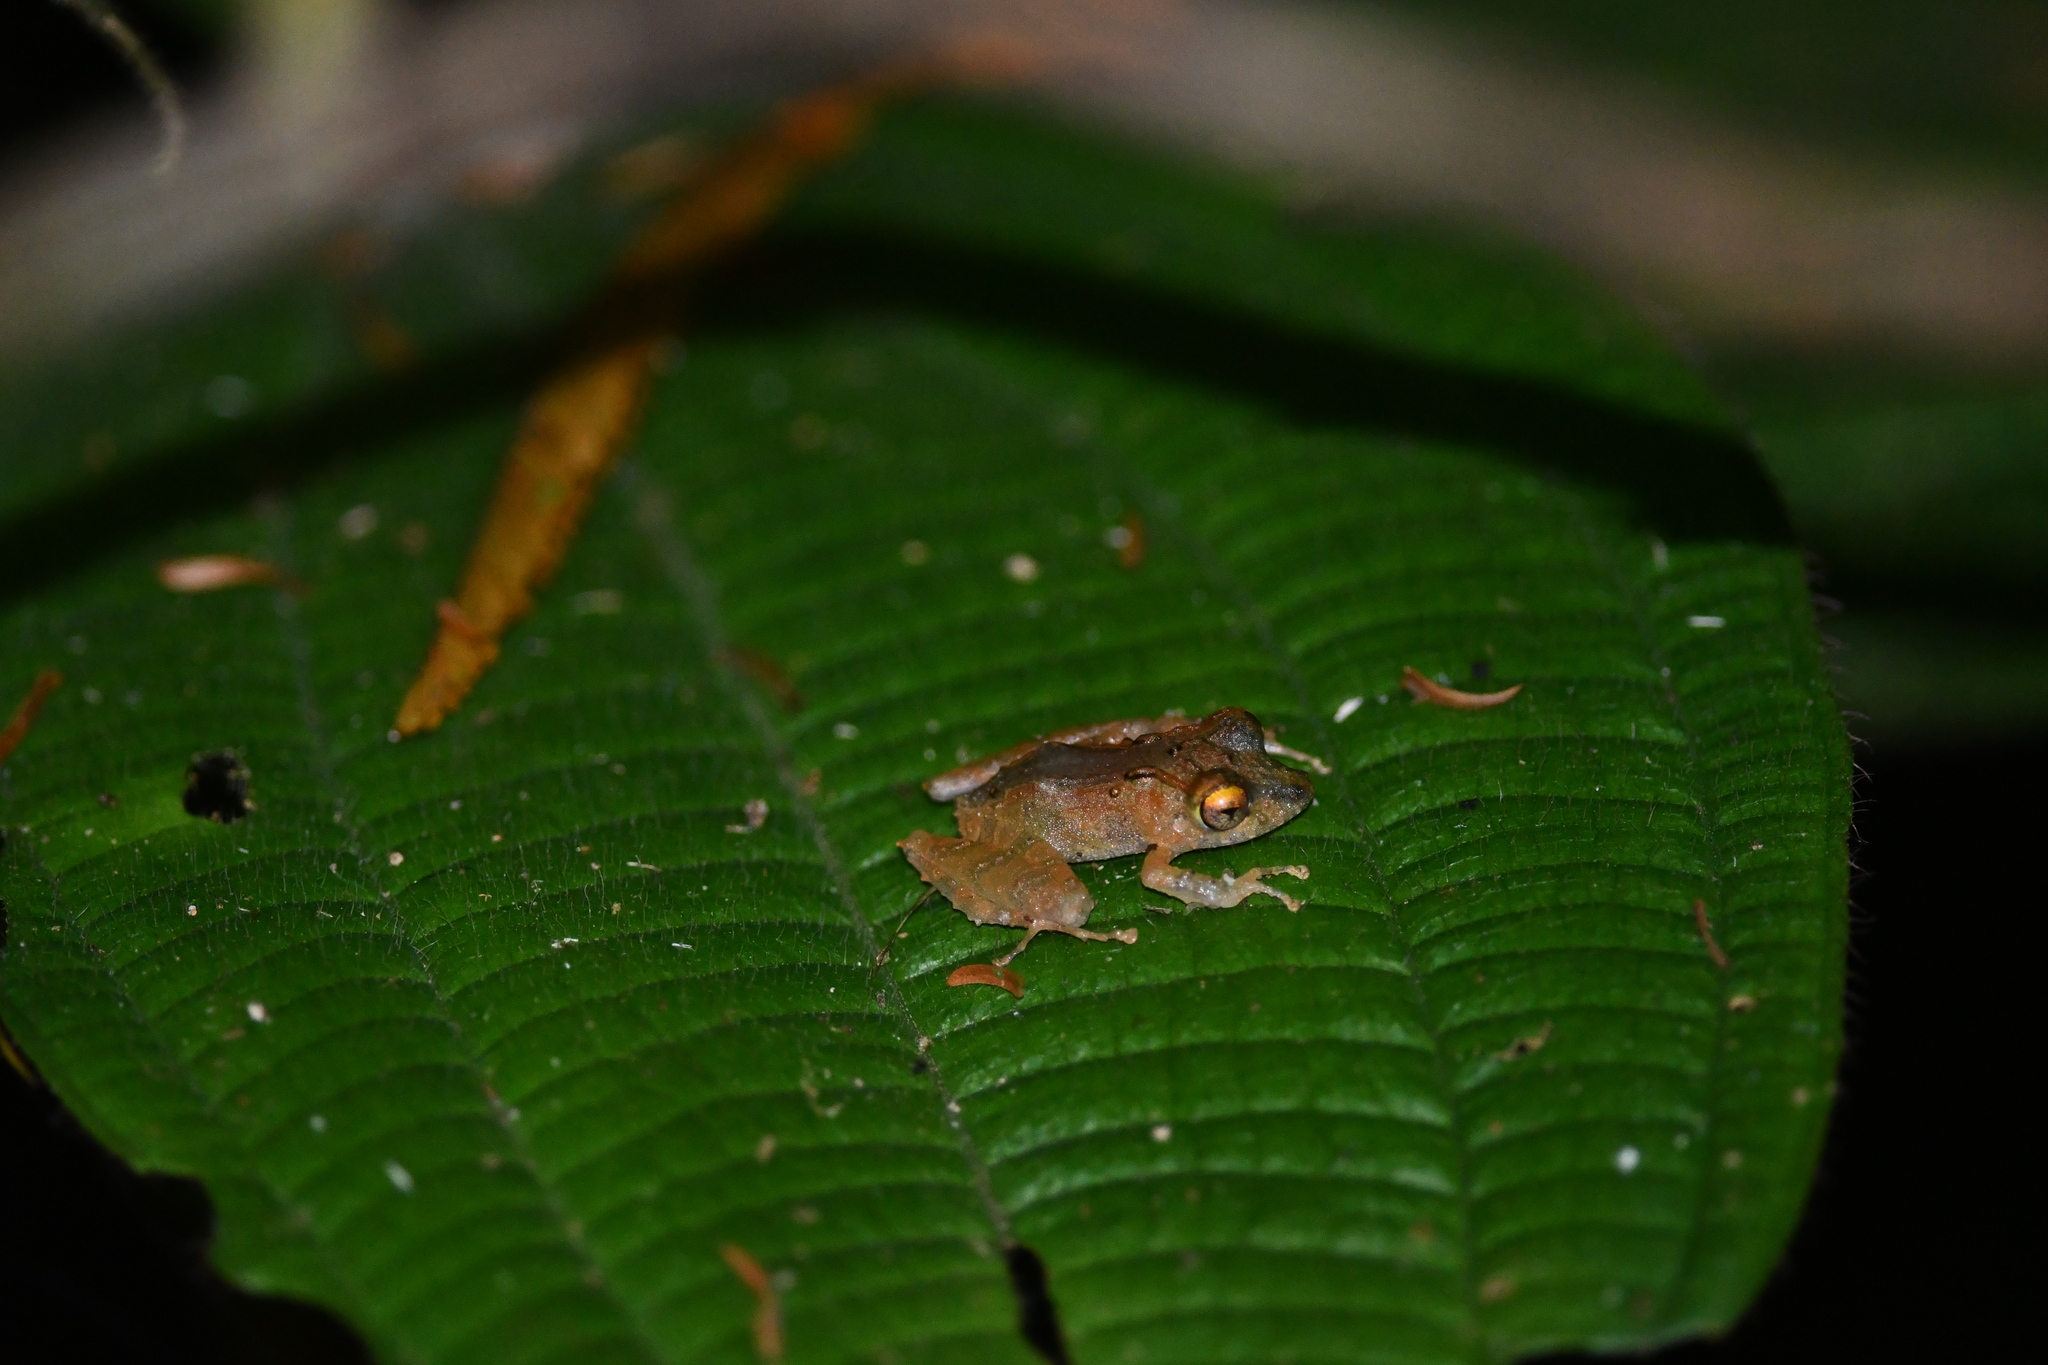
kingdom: Animalia
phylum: Chordata
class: Amphibia
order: Anura
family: Craugastoridae
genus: Pristimantis
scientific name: Pristimantis cruentus
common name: Chiriqui robber frog
